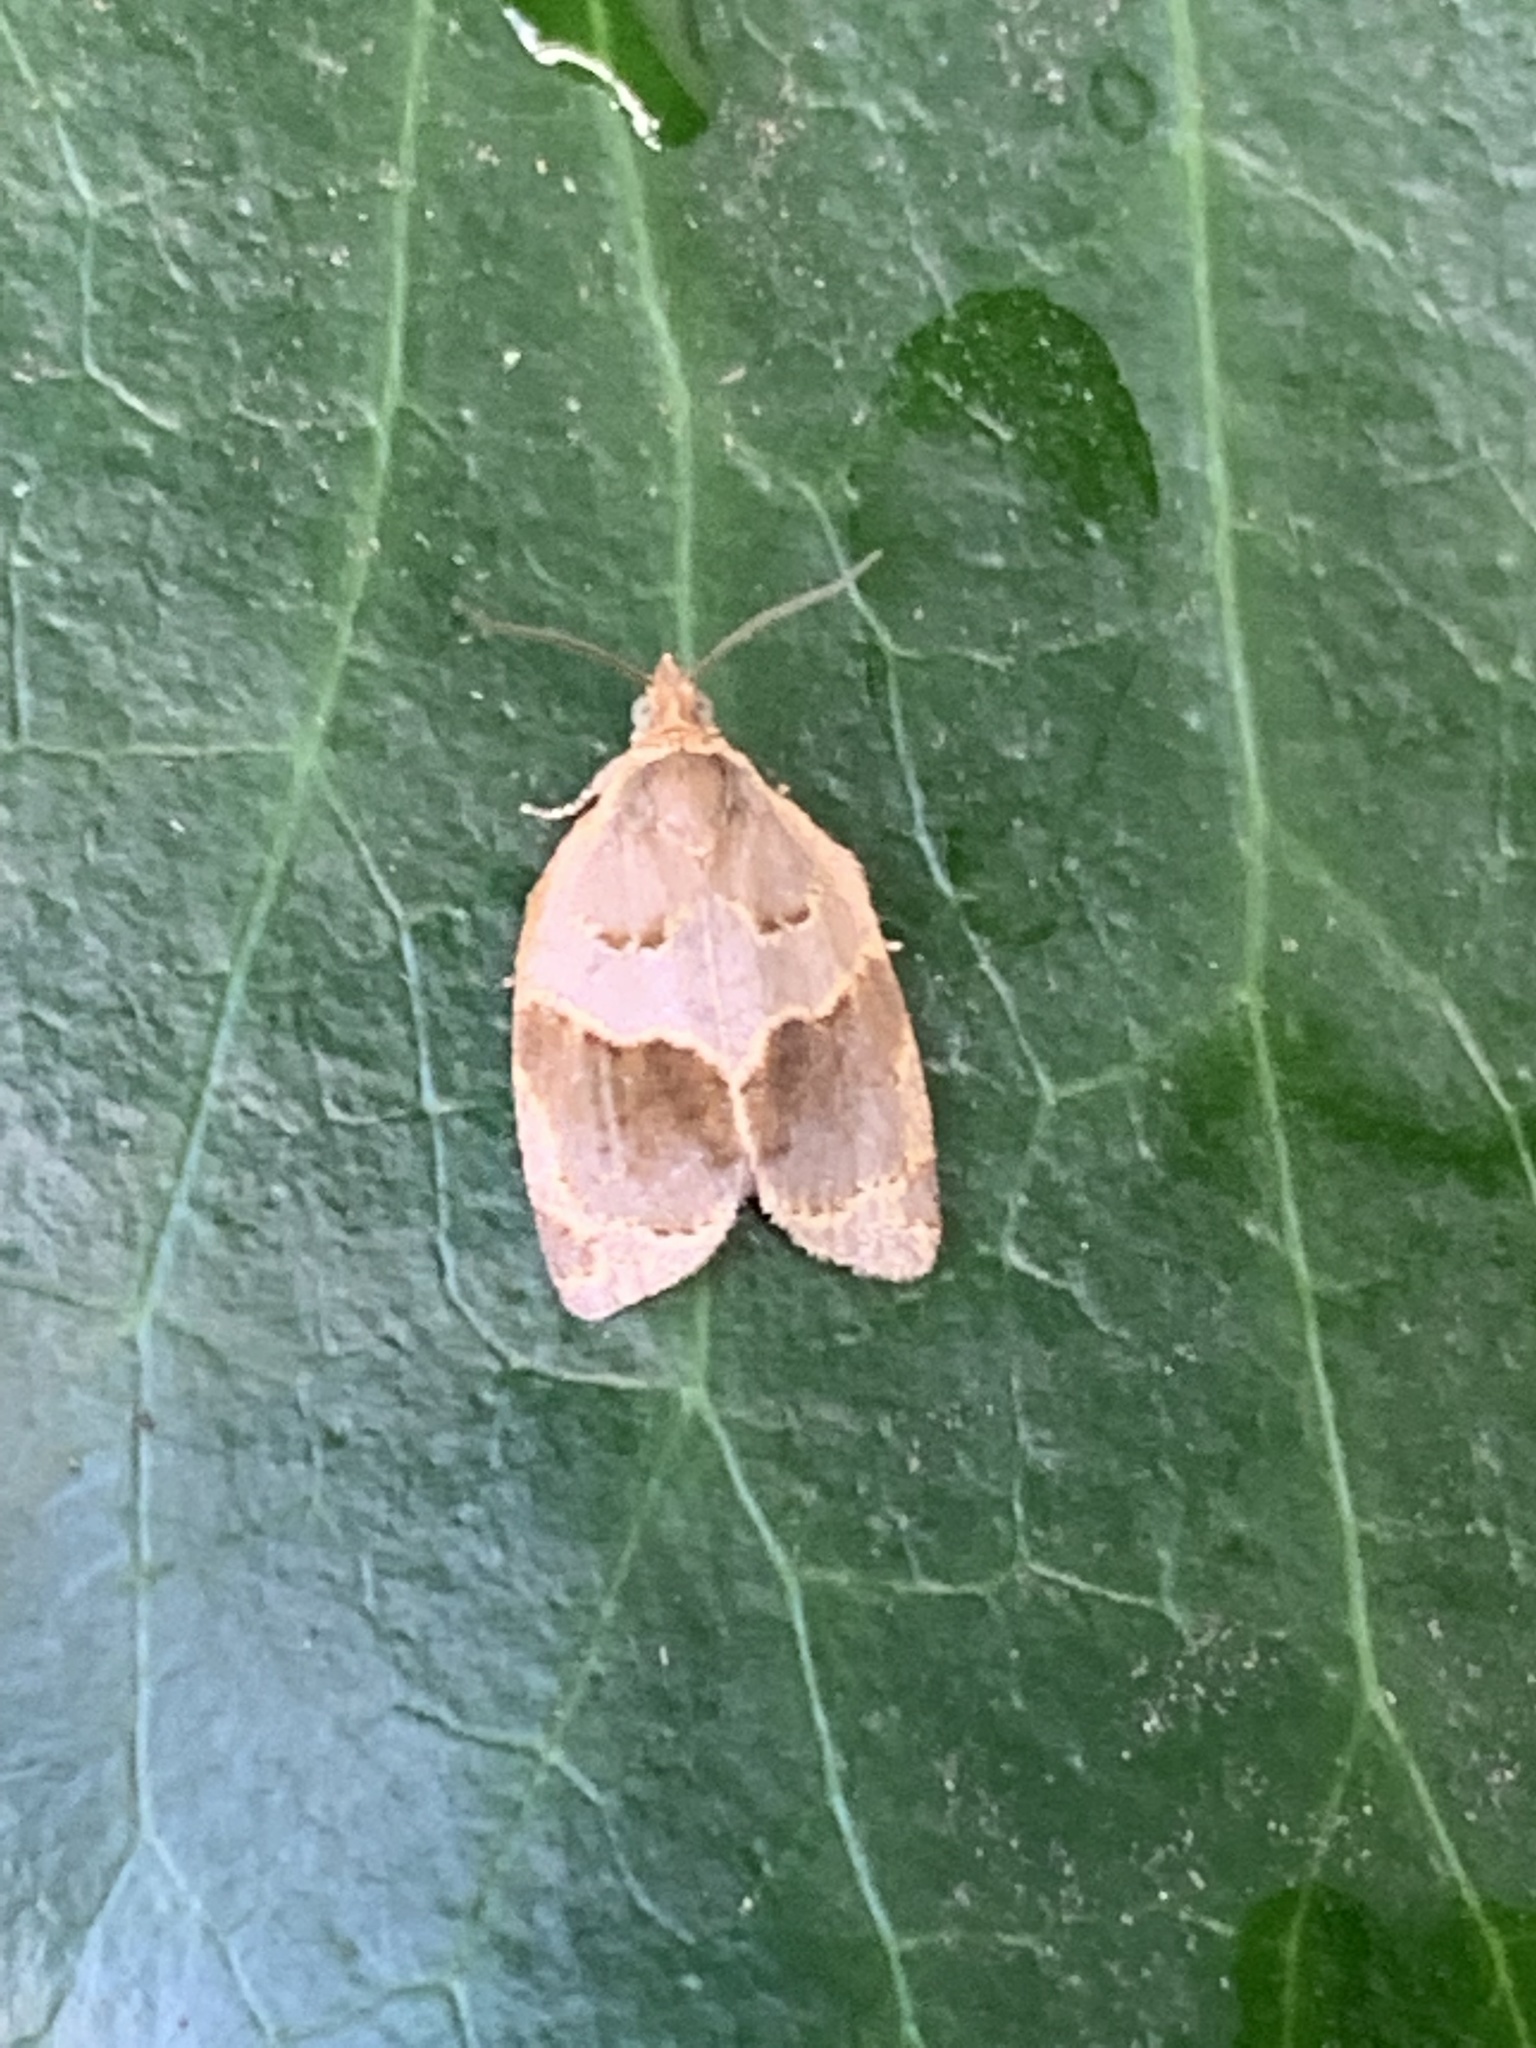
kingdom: Animalia
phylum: Arthropoda
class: Insecta
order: Lepidoptera
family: Tortricidae
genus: Clepsis
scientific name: Clepsis dumicolana
